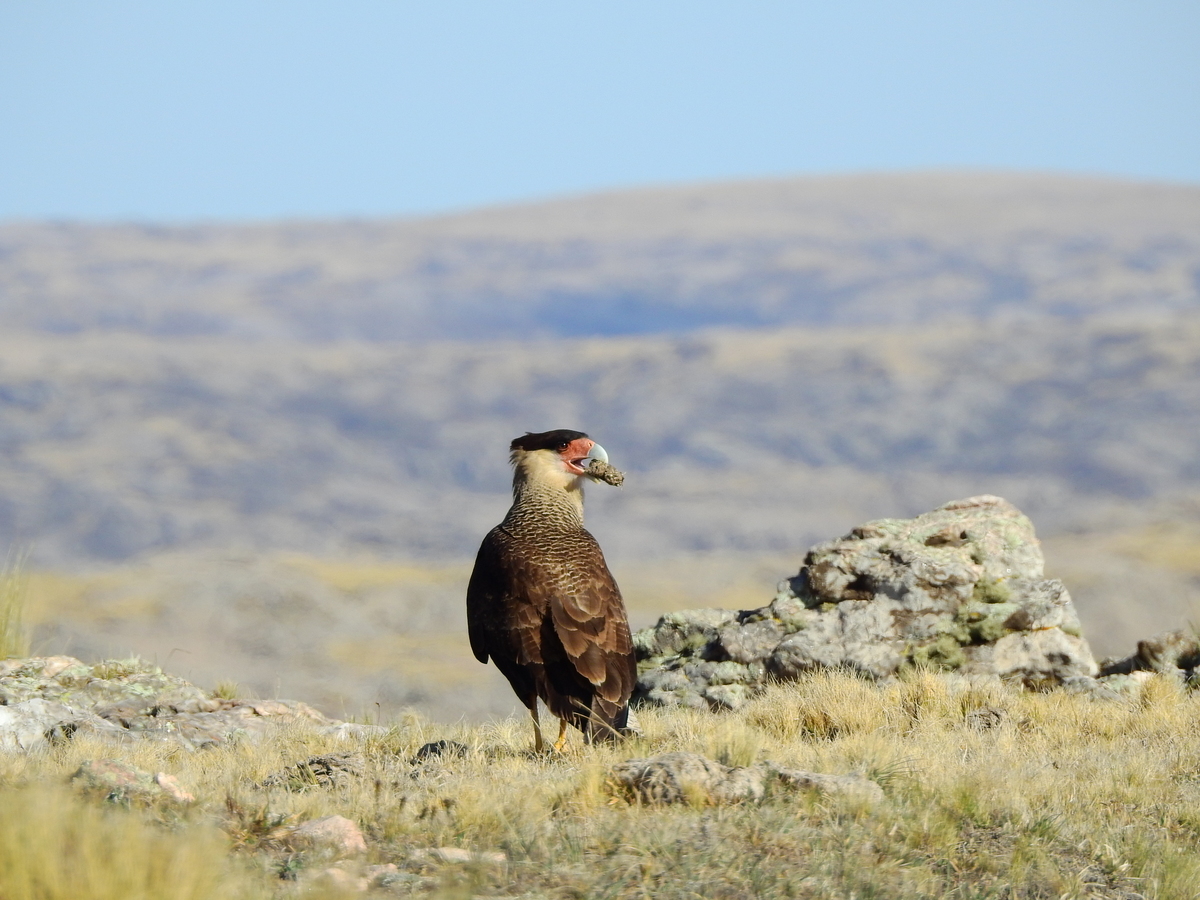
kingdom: Animalia
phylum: Chordata
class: Aves
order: Falconiformes
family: Falconidae
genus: Caracara
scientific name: Caracara plancus
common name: Southern caracara
